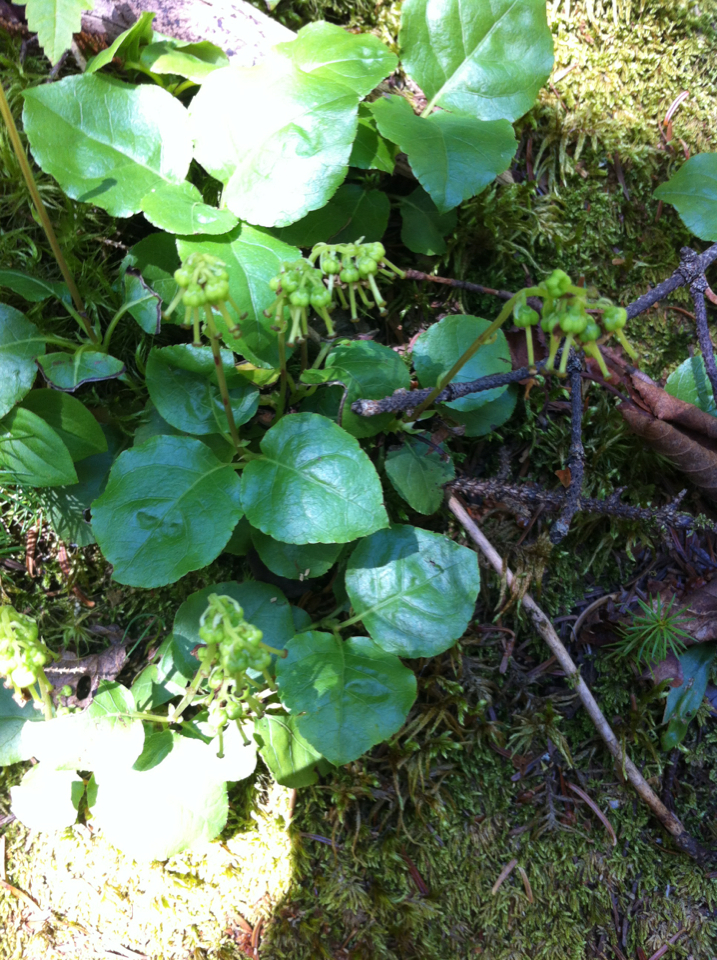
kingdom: Plantae
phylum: Tracheophyta
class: Magnoliopsida
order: Ericales
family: Ericaceae
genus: Orthilia
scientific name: Orthilia secunda
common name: One-sided orthilia
